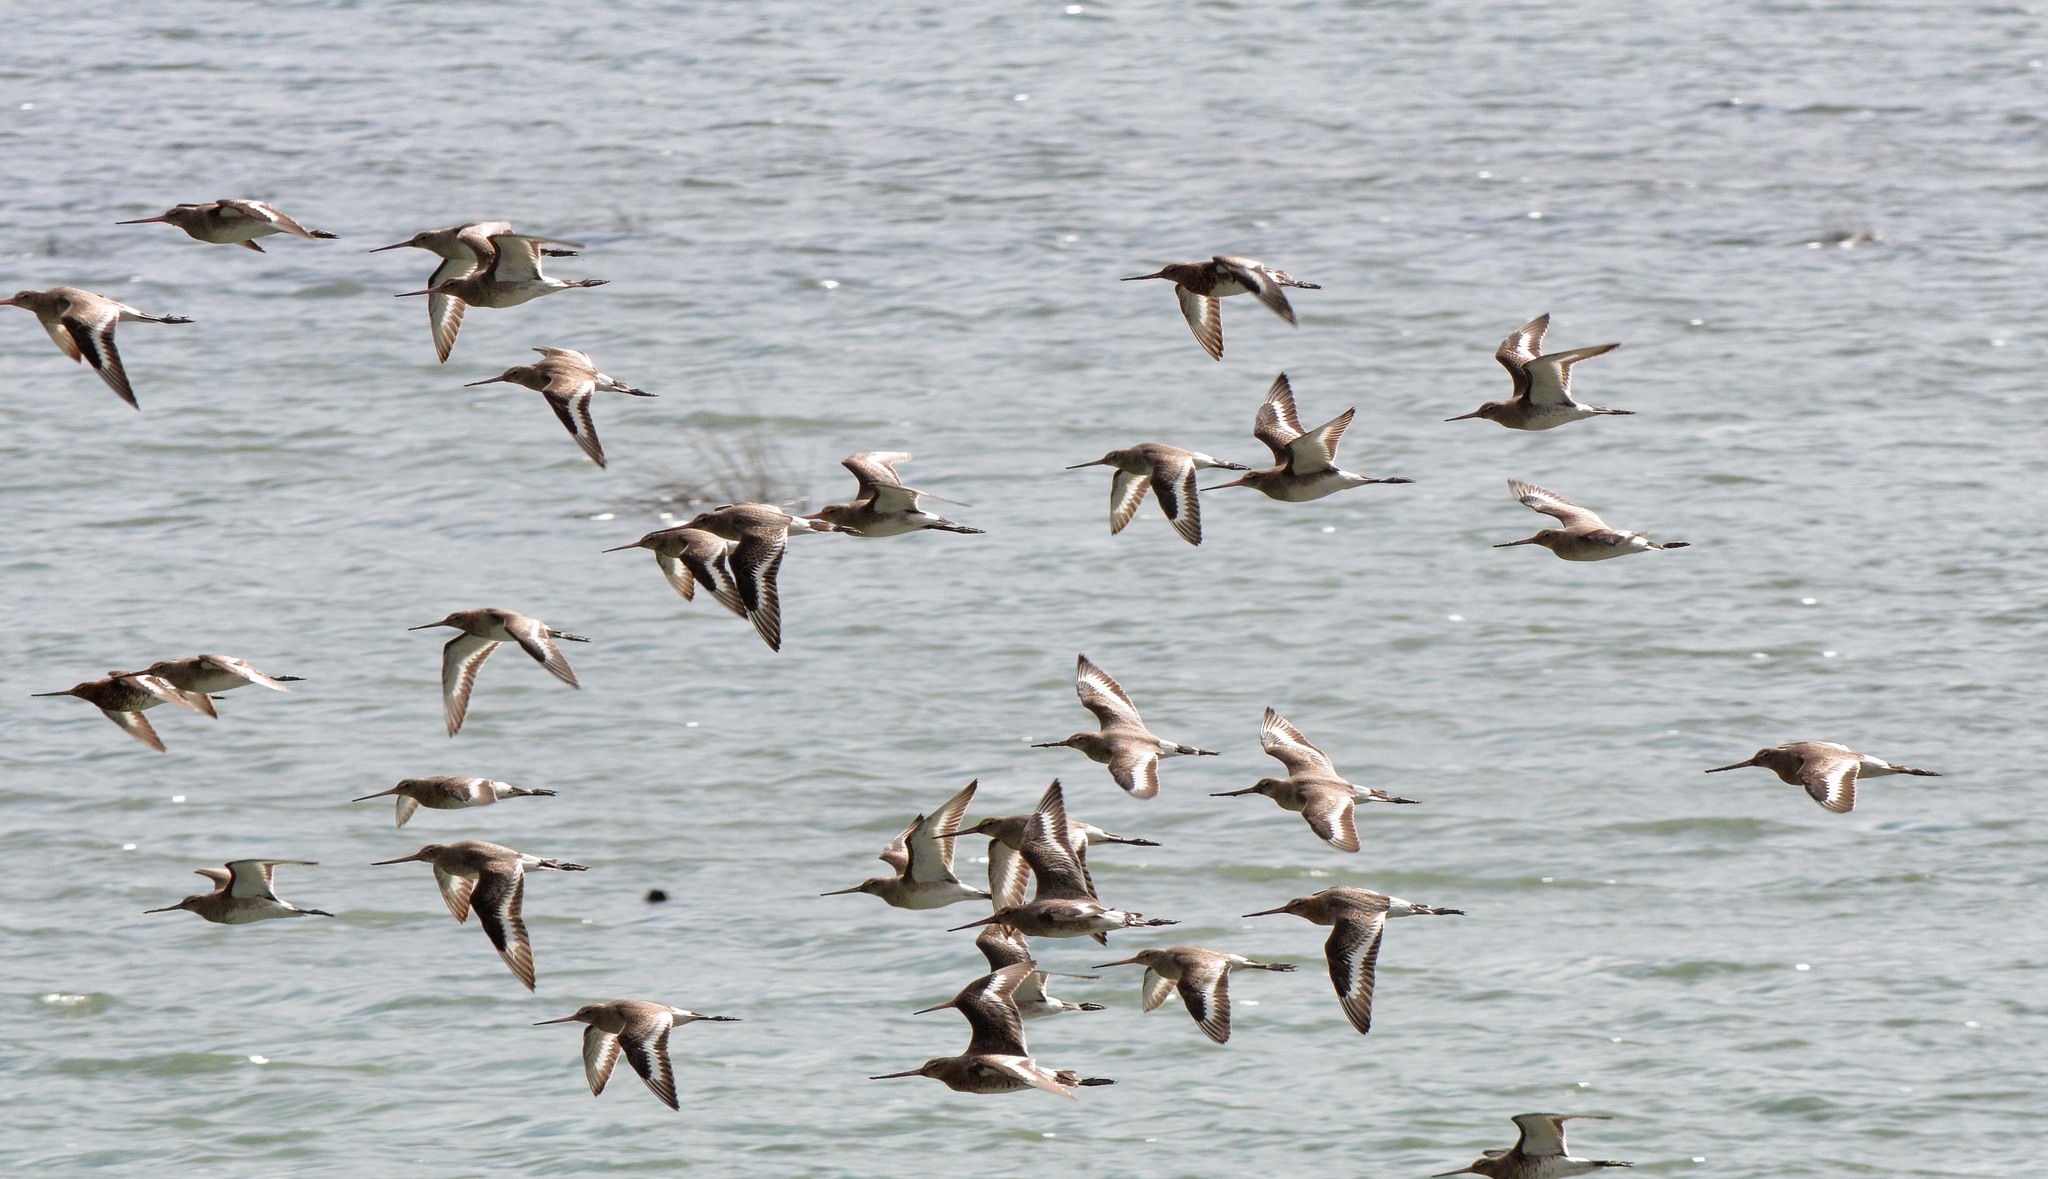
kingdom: Animalia
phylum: Chordata
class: Aves
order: Charadriiformes
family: Scolopacidae
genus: Limosa
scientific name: Limosa limosa
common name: Black-tailed godwit
